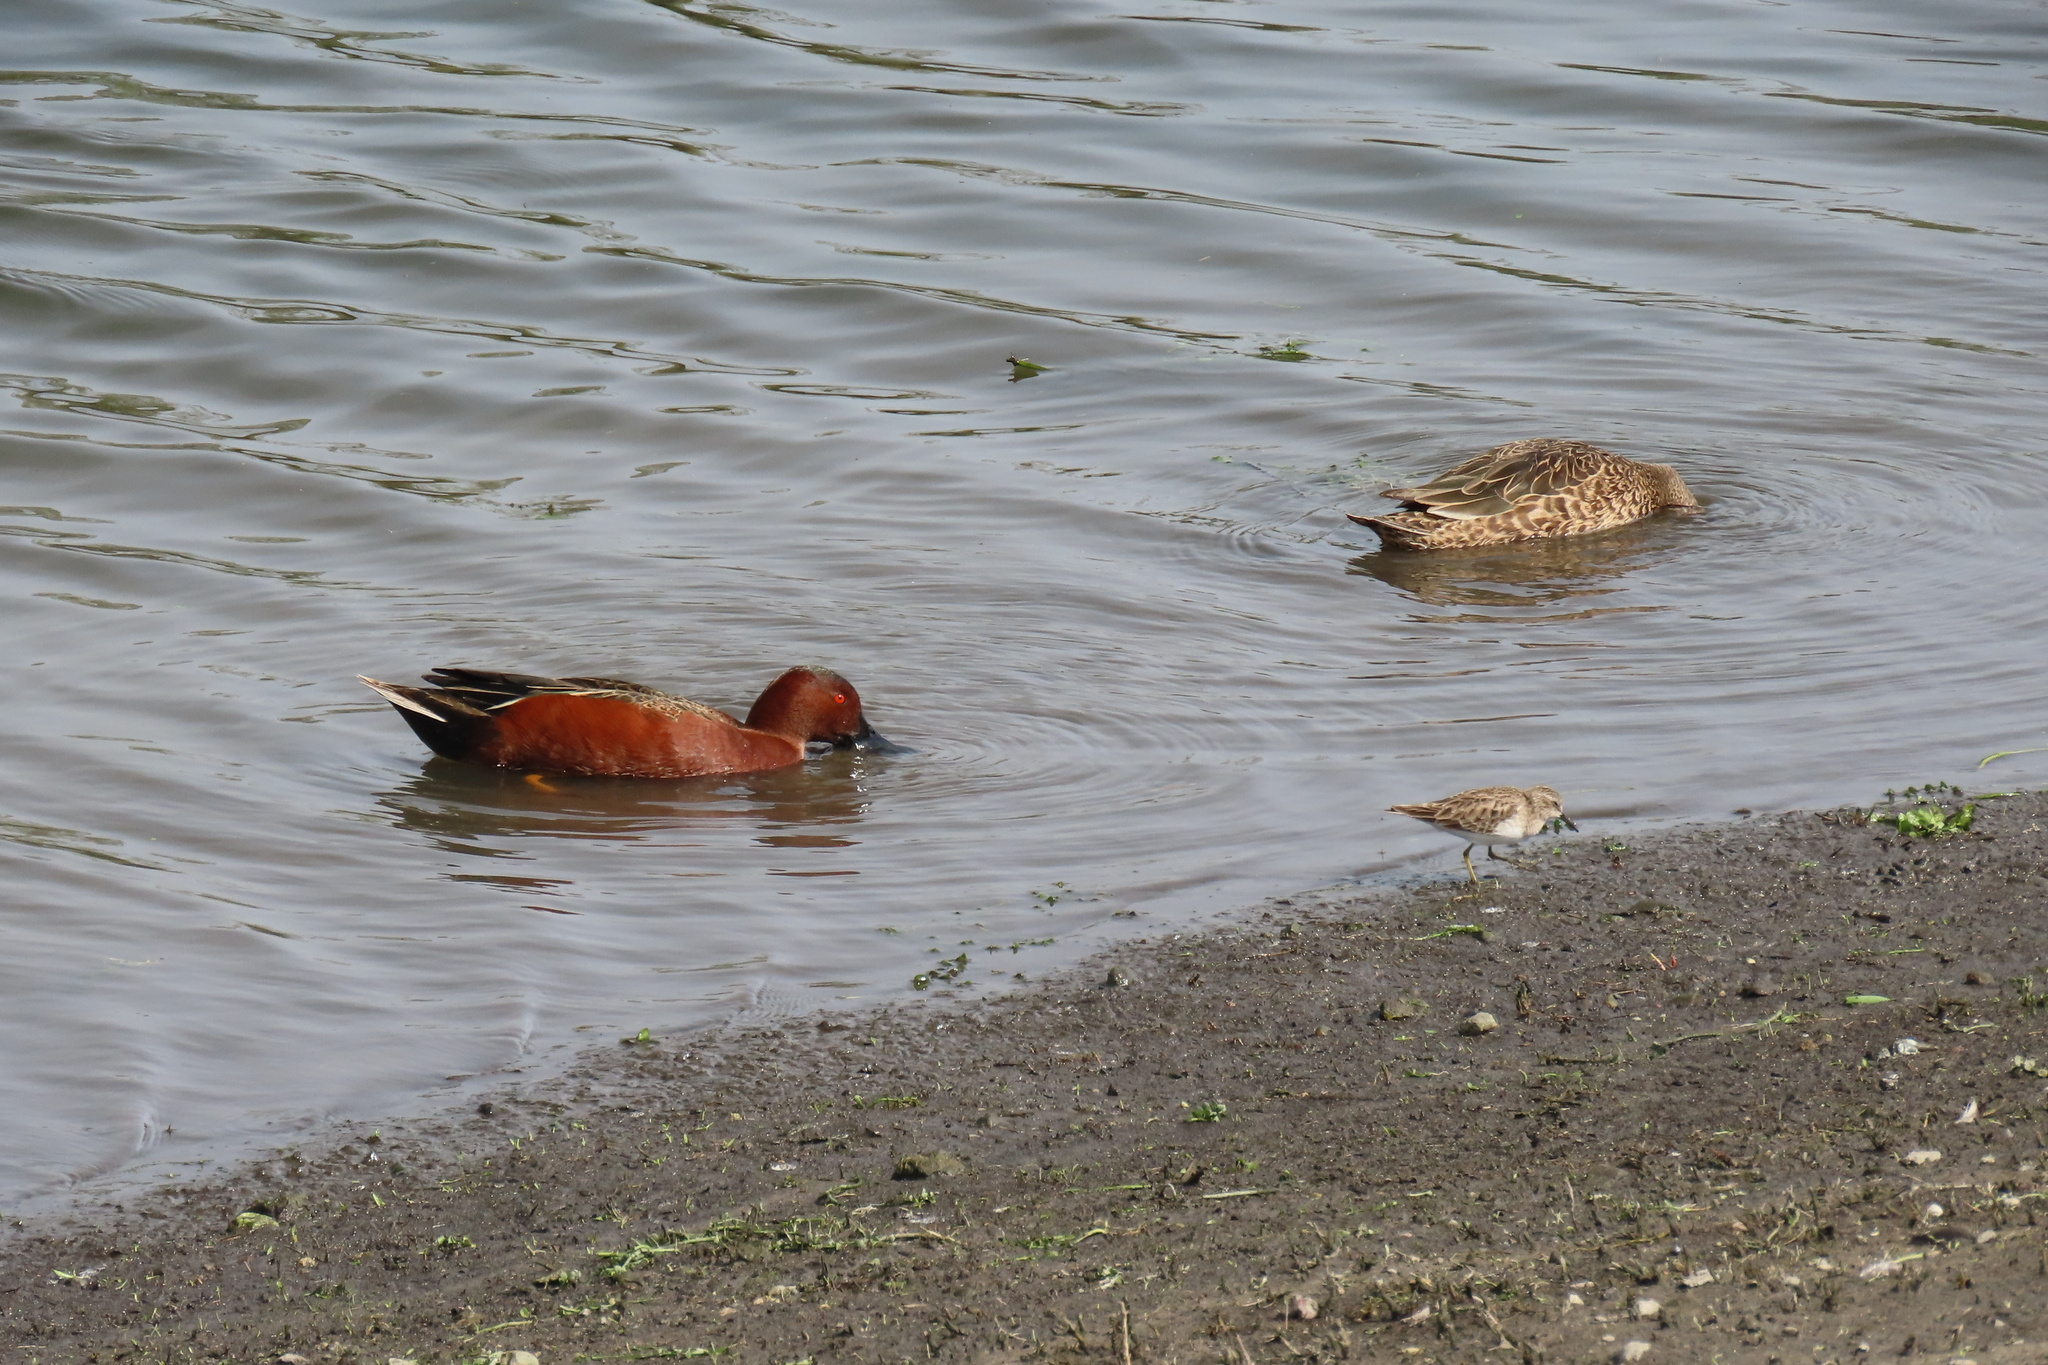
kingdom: Animalia
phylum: Chordata
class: Aves
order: Charadriiformes
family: Scolopacidae
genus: Calidris
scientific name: Calidris minutilla
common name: Least sandpiper
